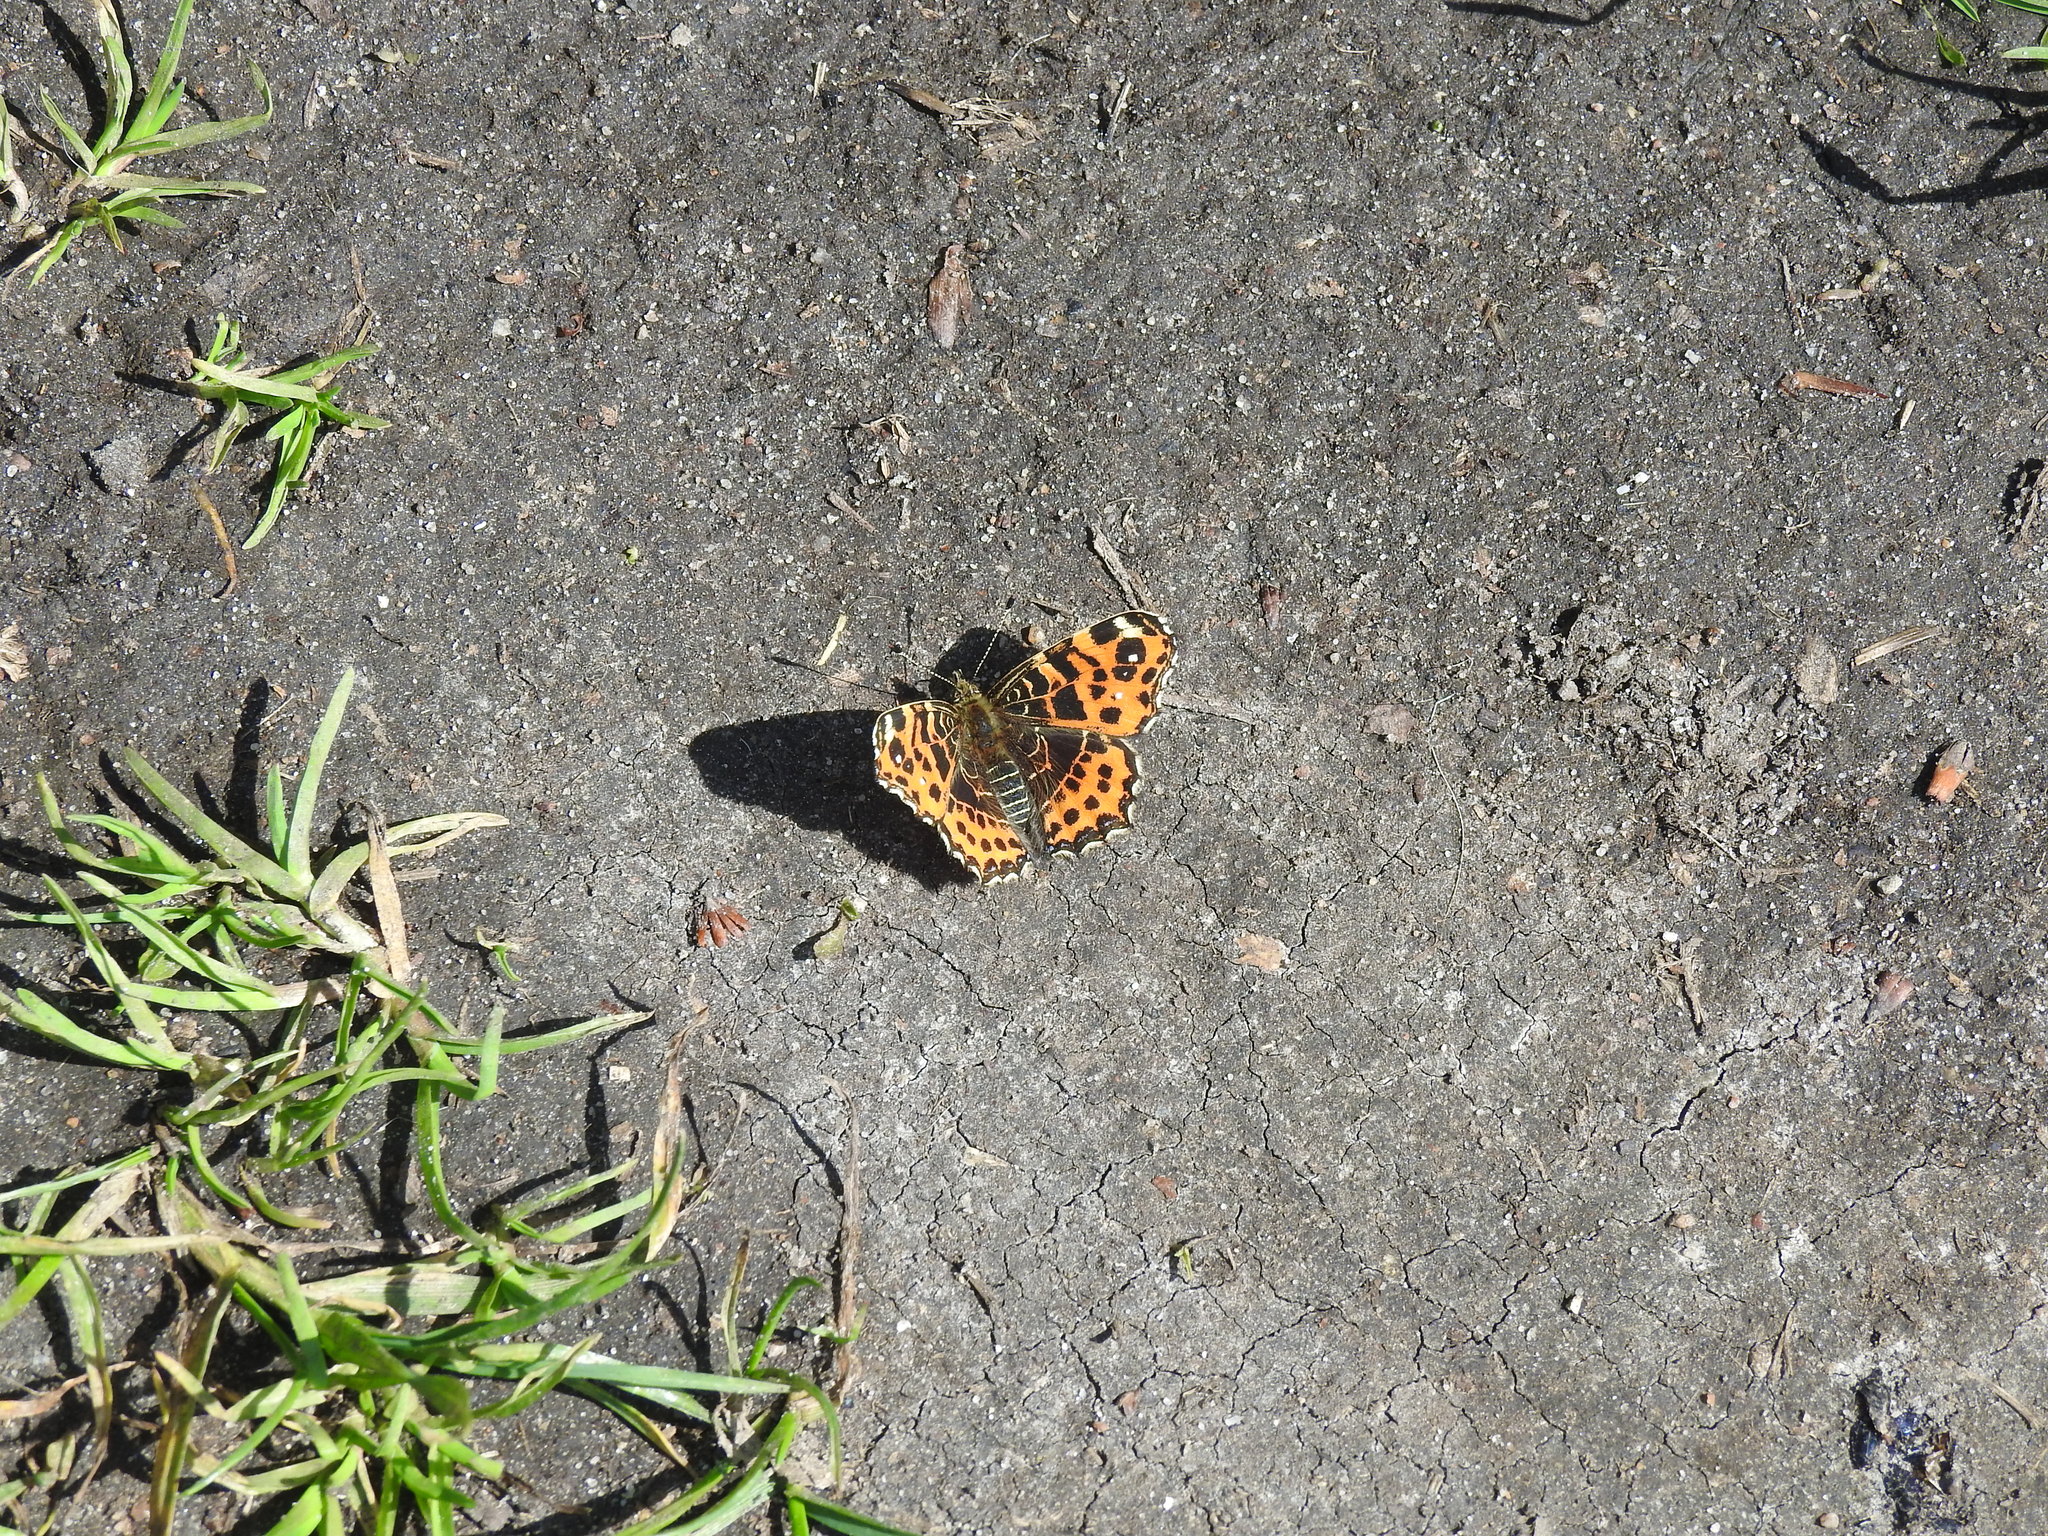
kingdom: Animalia
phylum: Arthropoda
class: Insecta
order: Lepidoptera
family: Nymphalidae
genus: Araschnia
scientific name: Araschnia levana
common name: Map butterfly
